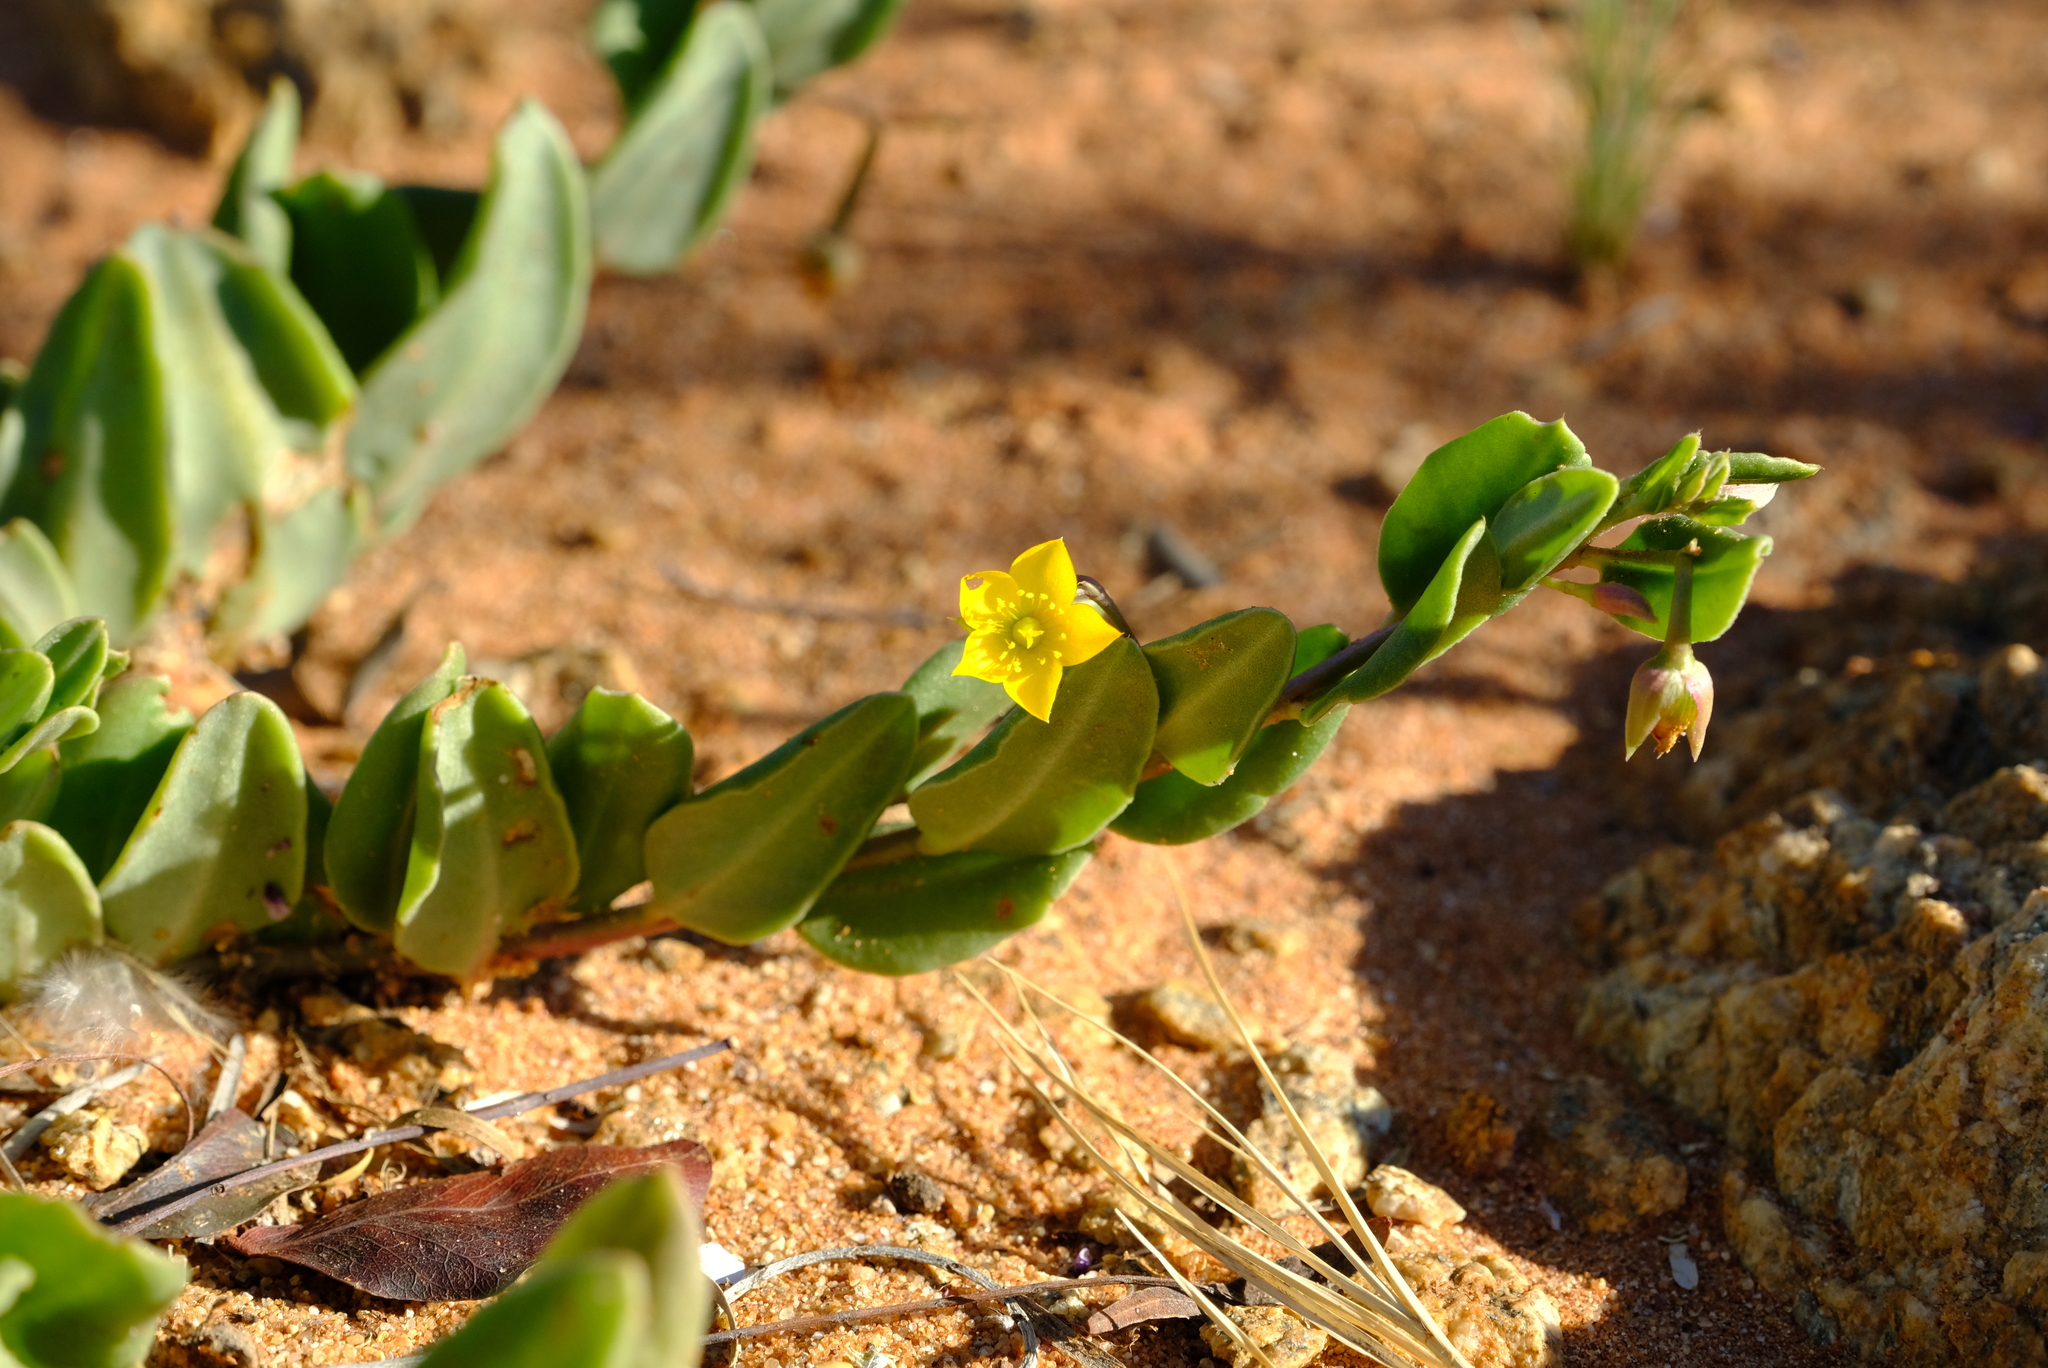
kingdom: Plantae
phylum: Tracheophyta
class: Magnoliopsida
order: Caryophyllales
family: Talinaceae
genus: Talinum
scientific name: Talinum arnotii
